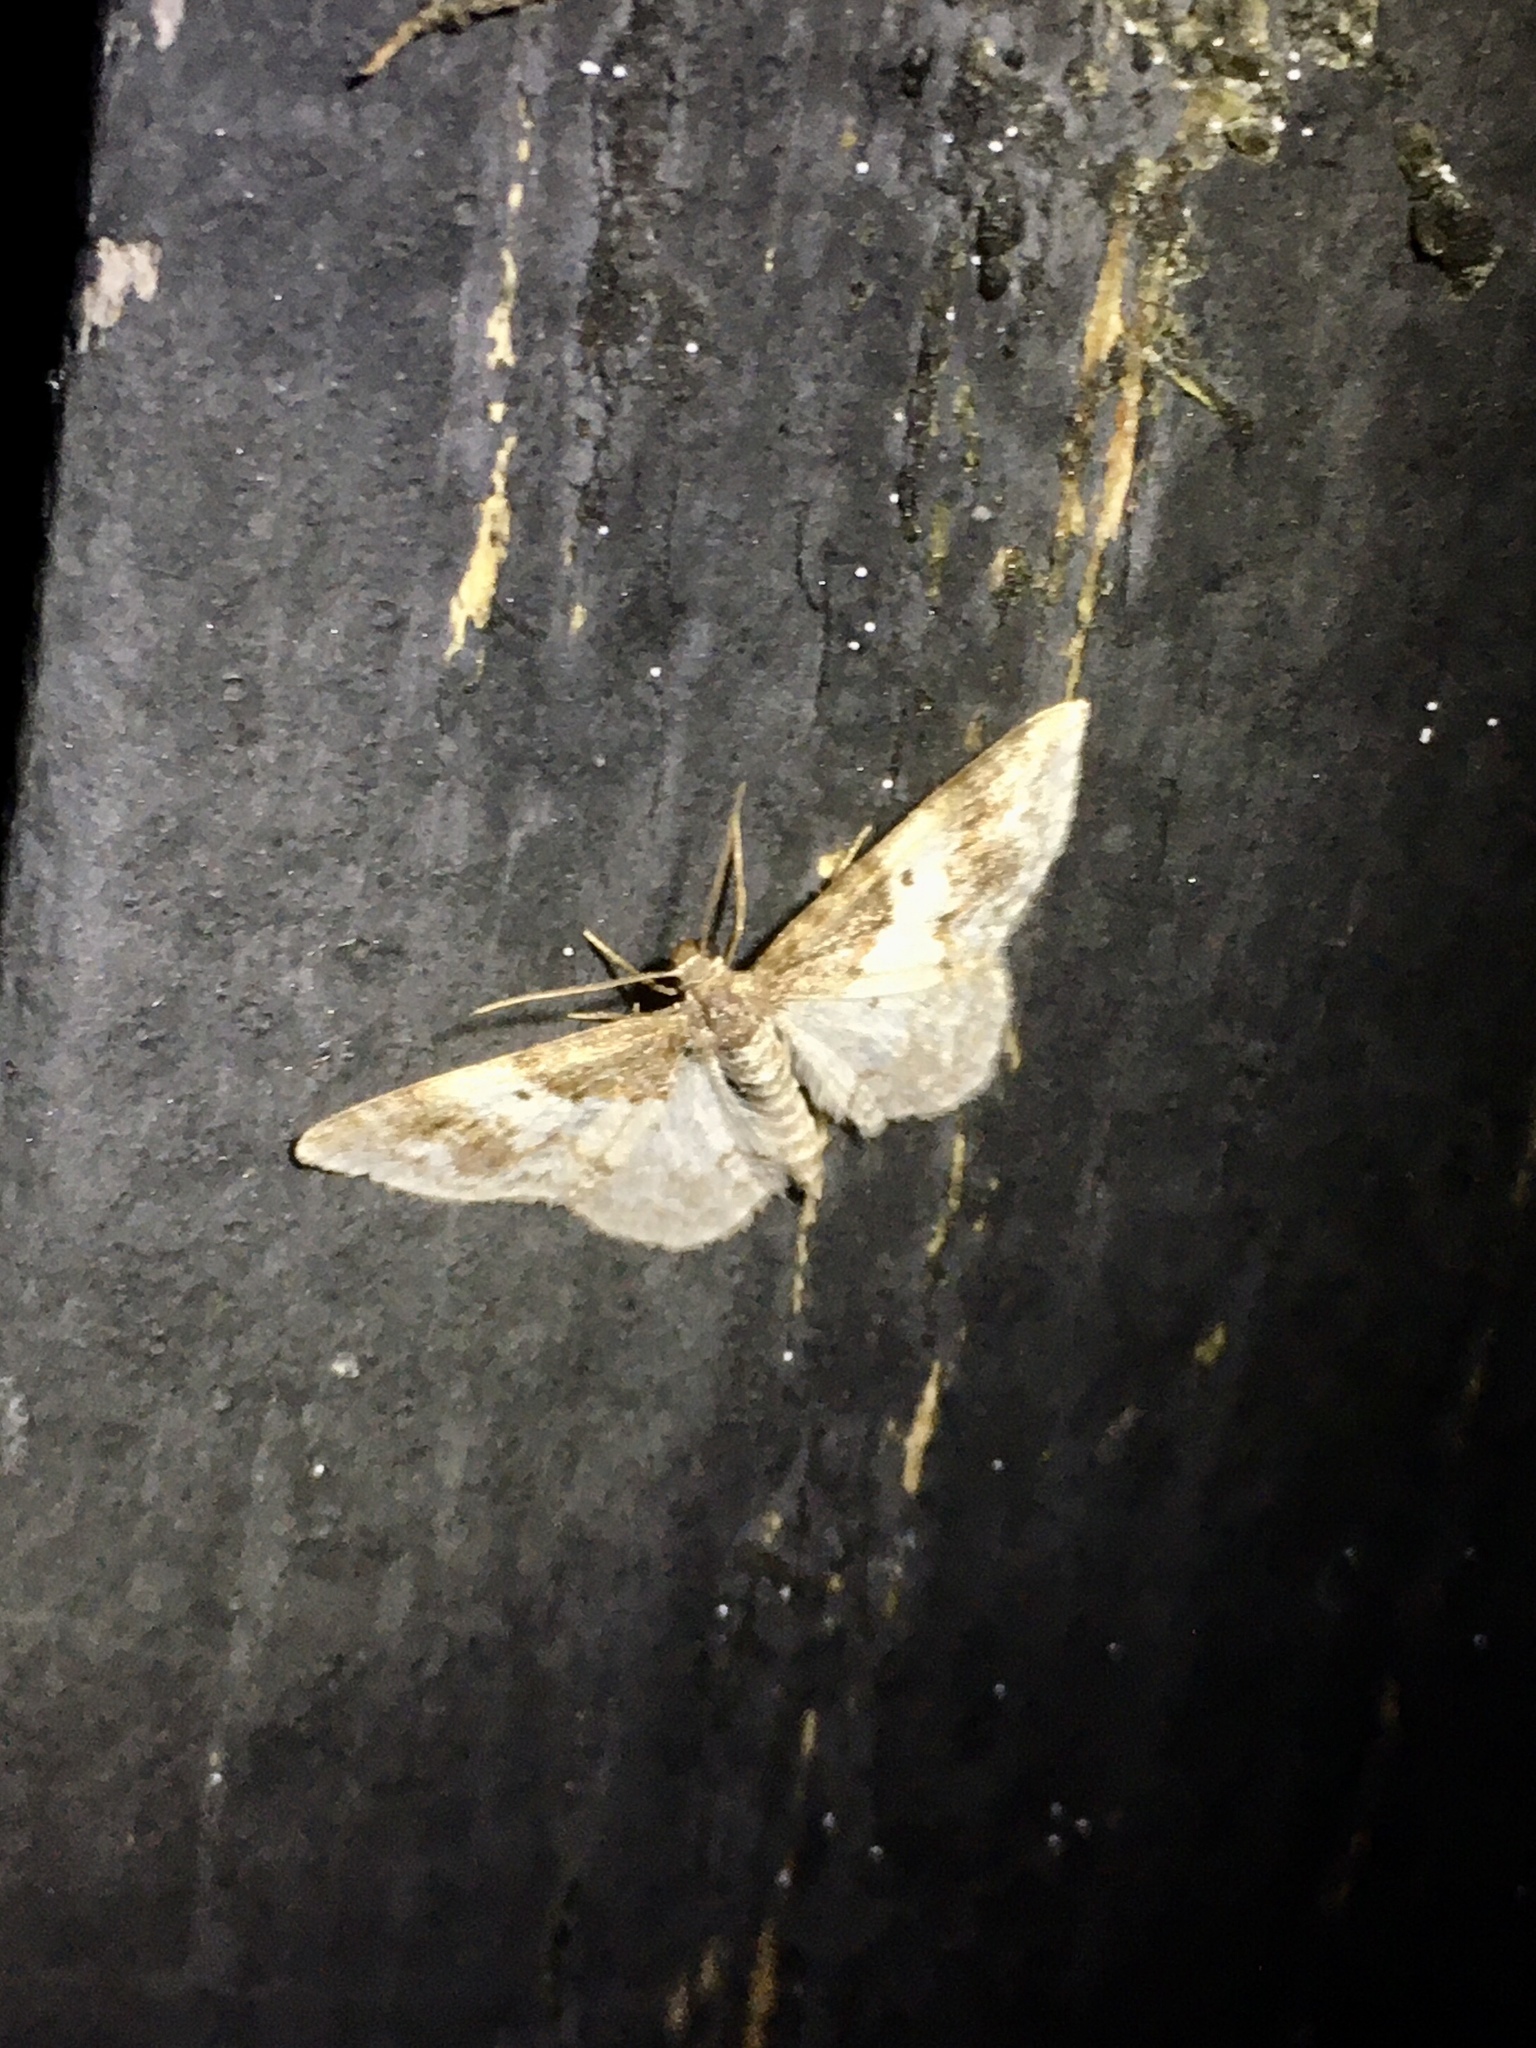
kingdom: Animalia
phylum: Arthropoda
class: Insecta
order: Lepidoptera
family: Geometridae
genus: Hydrelia
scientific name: Hydrelia condensata
